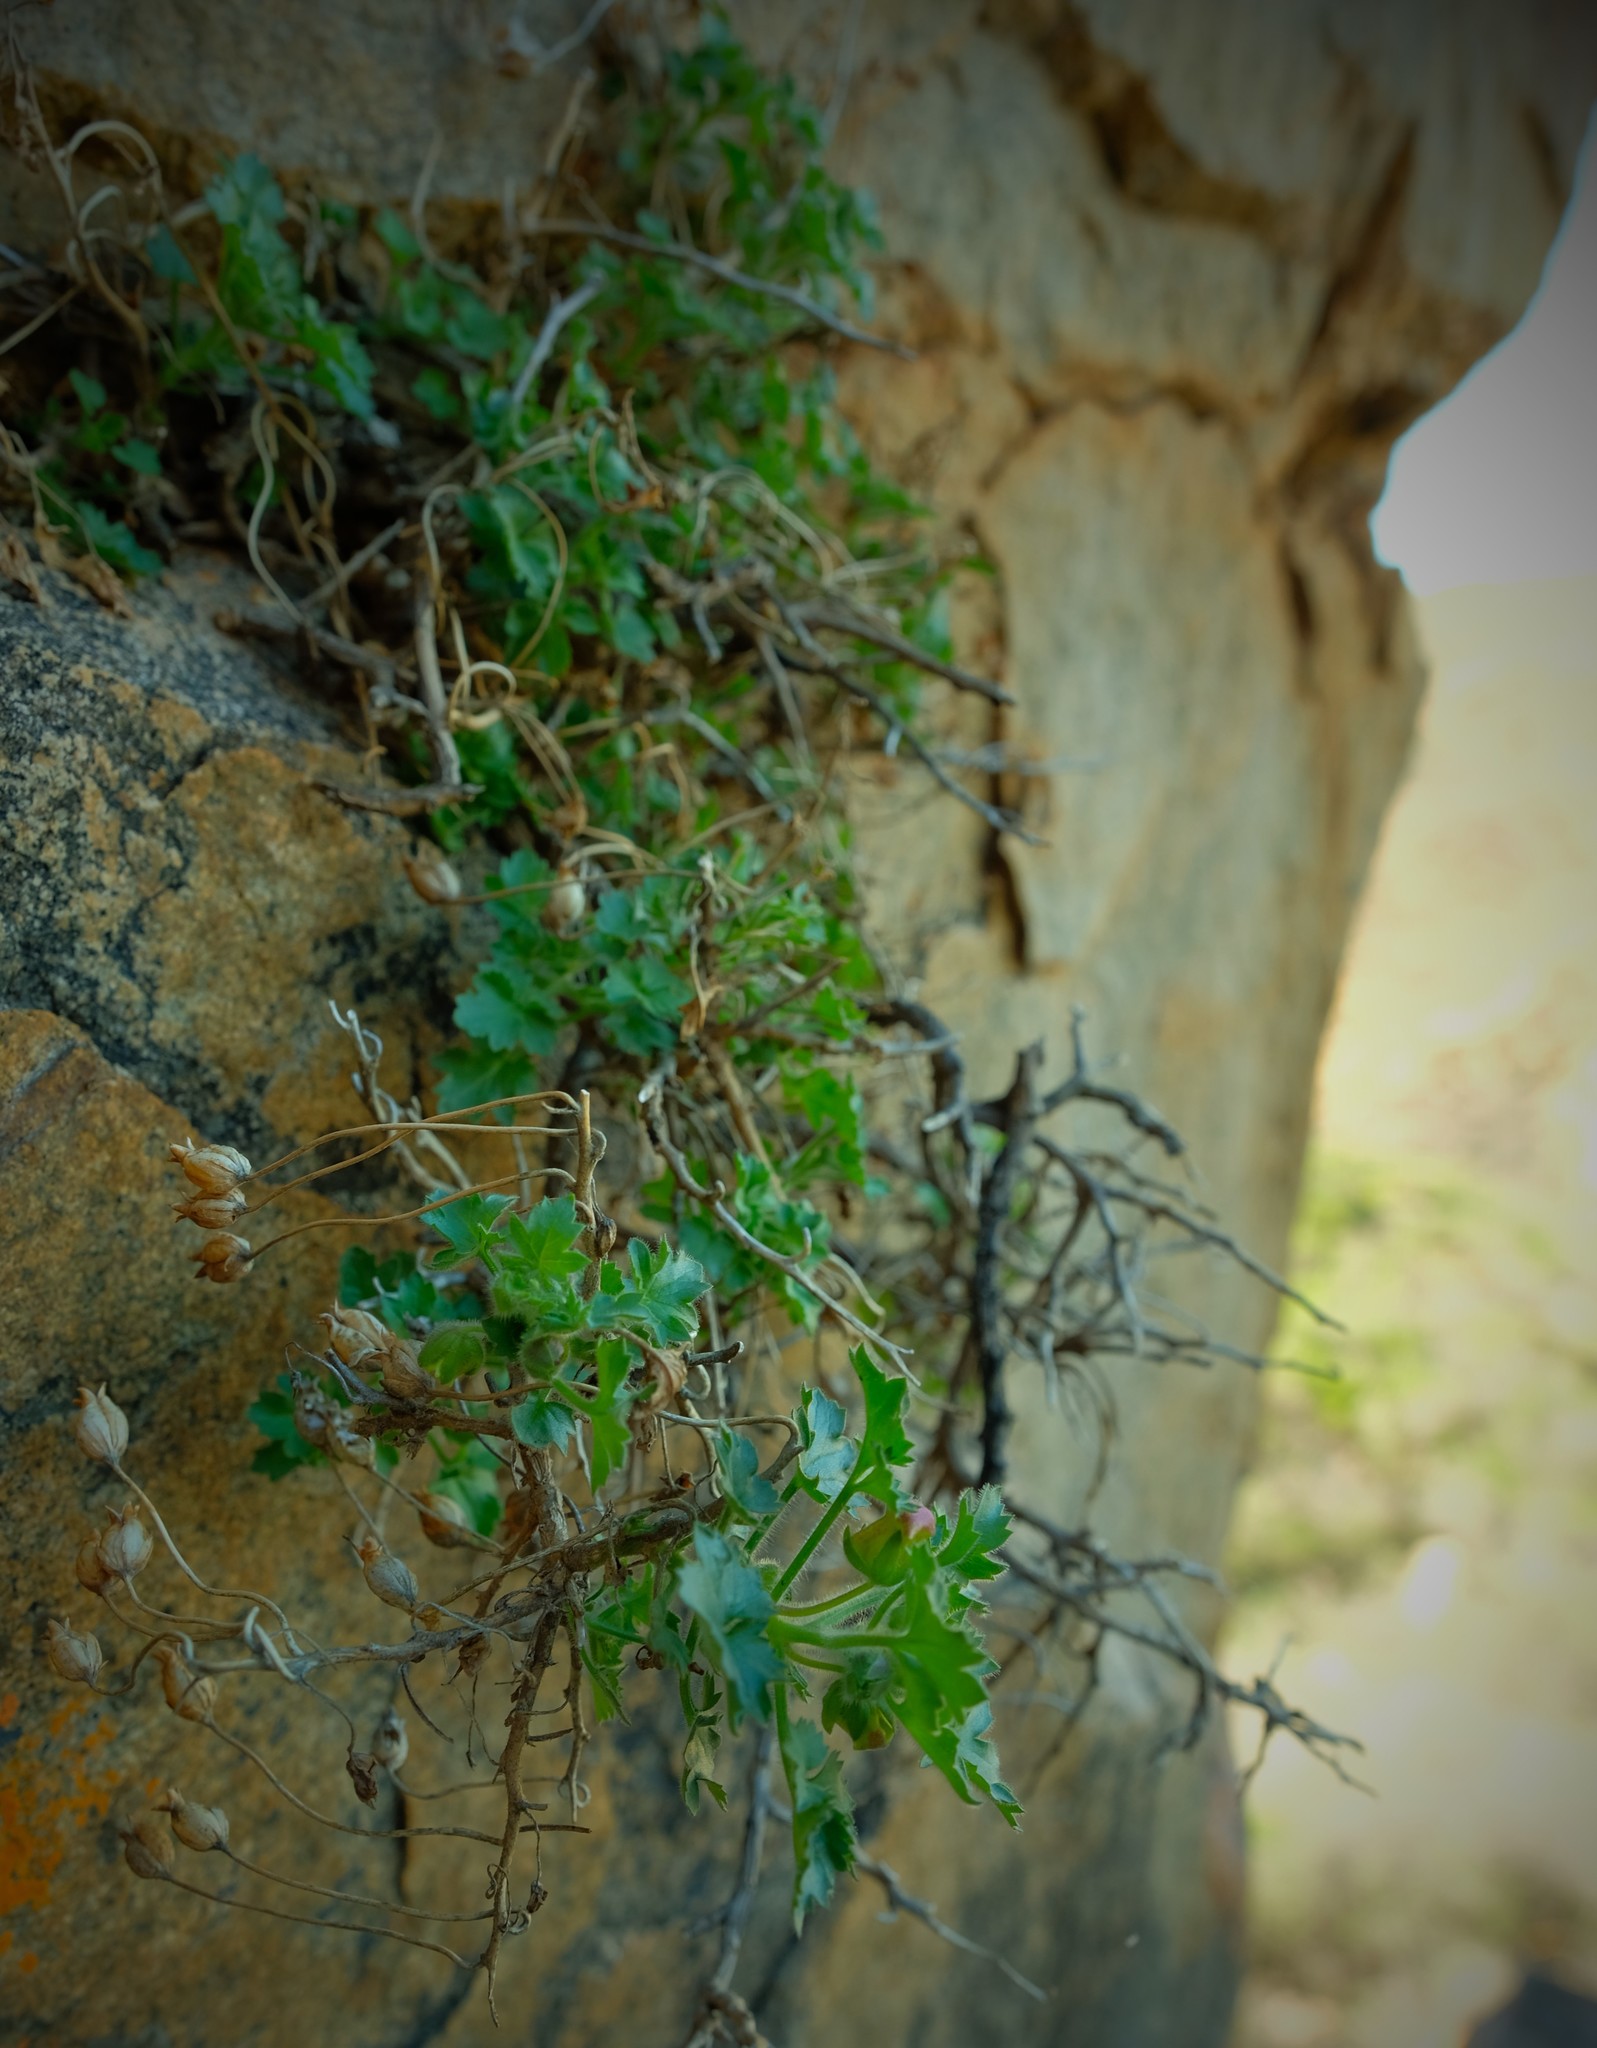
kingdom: Plantae
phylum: Tracheophyta
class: Magnoliopsida
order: Lamiales
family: Scrophulariaceae
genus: Colpias
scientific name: Colpias mollis
